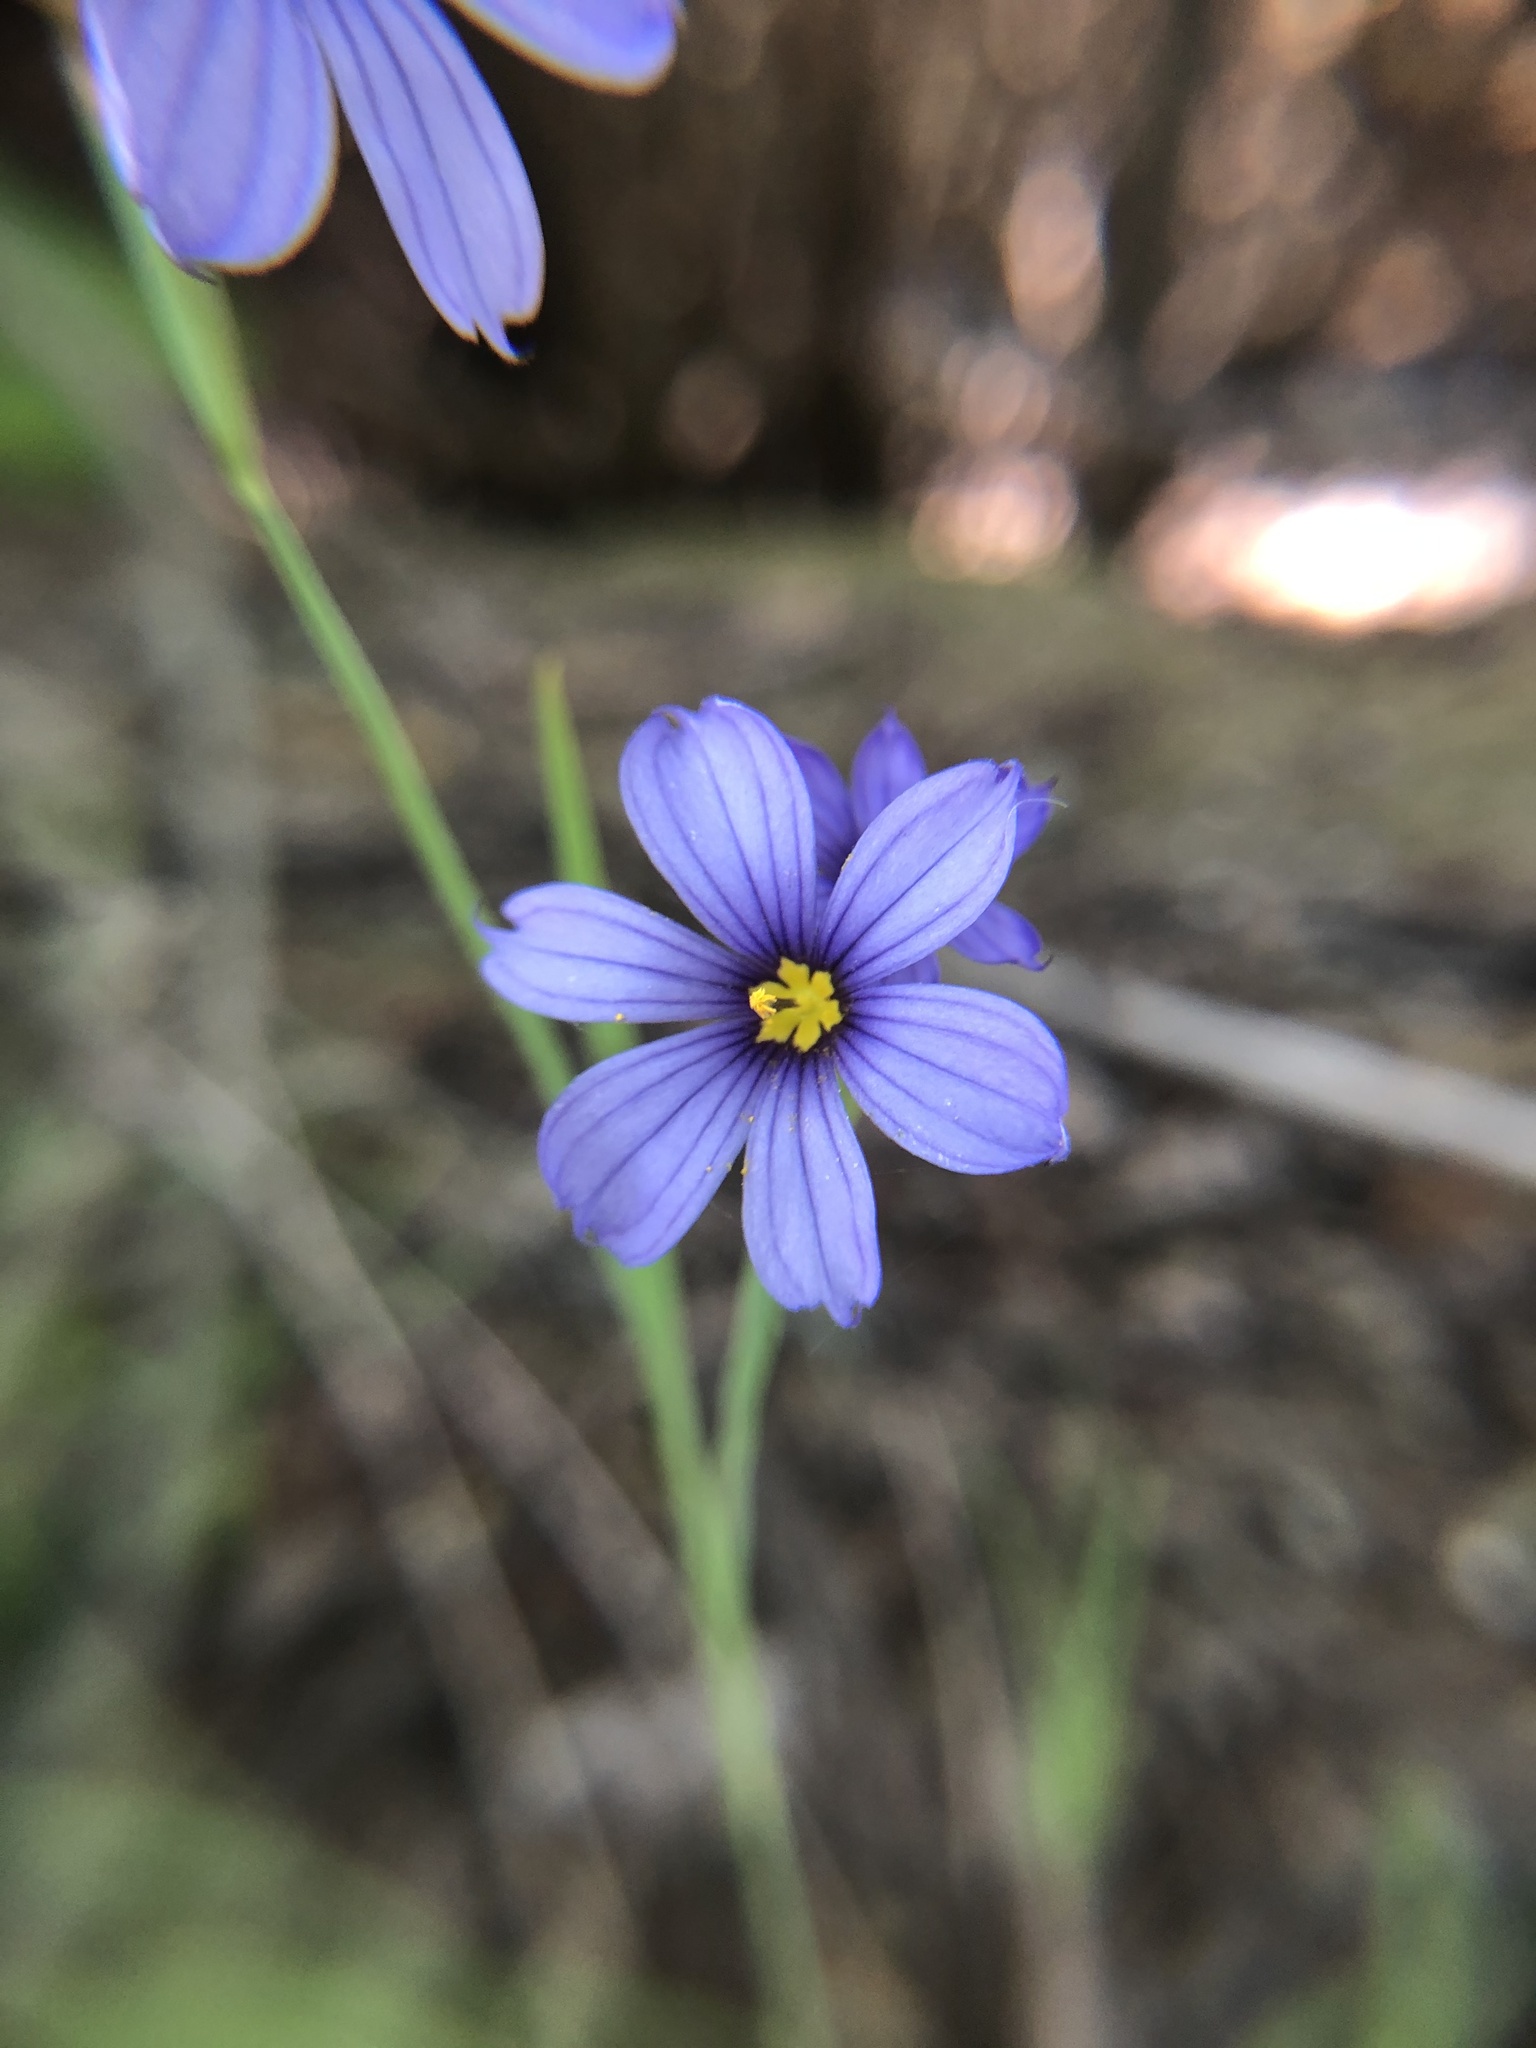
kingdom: Plantae
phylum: Tracheophyta
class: Liliopsida
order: Asparagales
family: Iridaceae
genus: Sisyrinchium
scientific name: Sisyrinchium bellum
